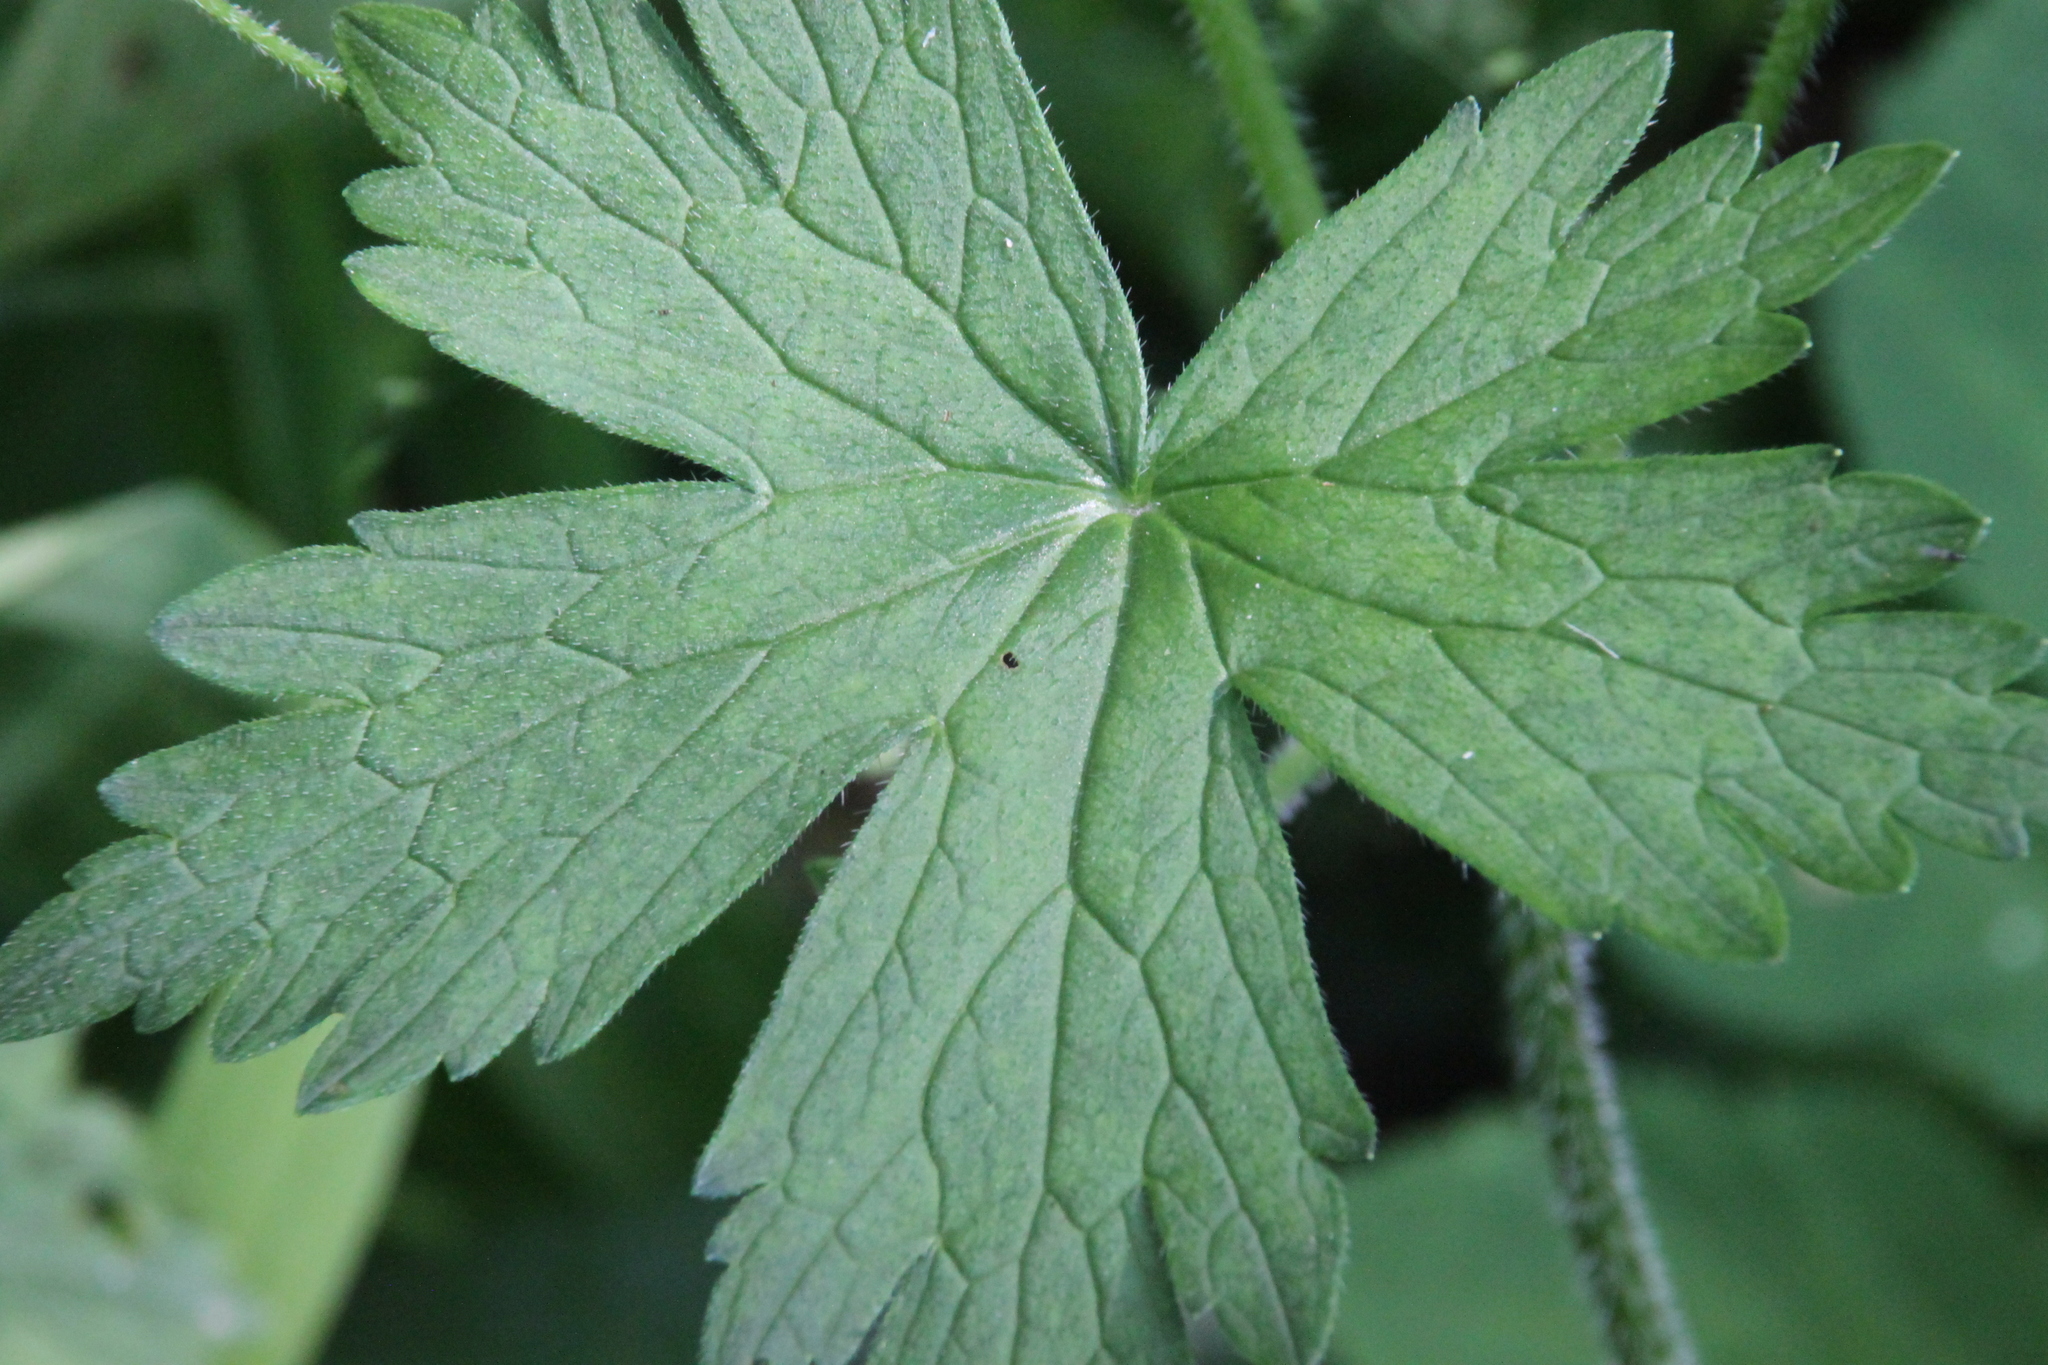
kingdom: Plantae
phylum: Tracheophyta
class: Magnoliopsida
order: Geraniales
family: Geraniaceae
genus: Geranium
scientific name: Geranium palustre
